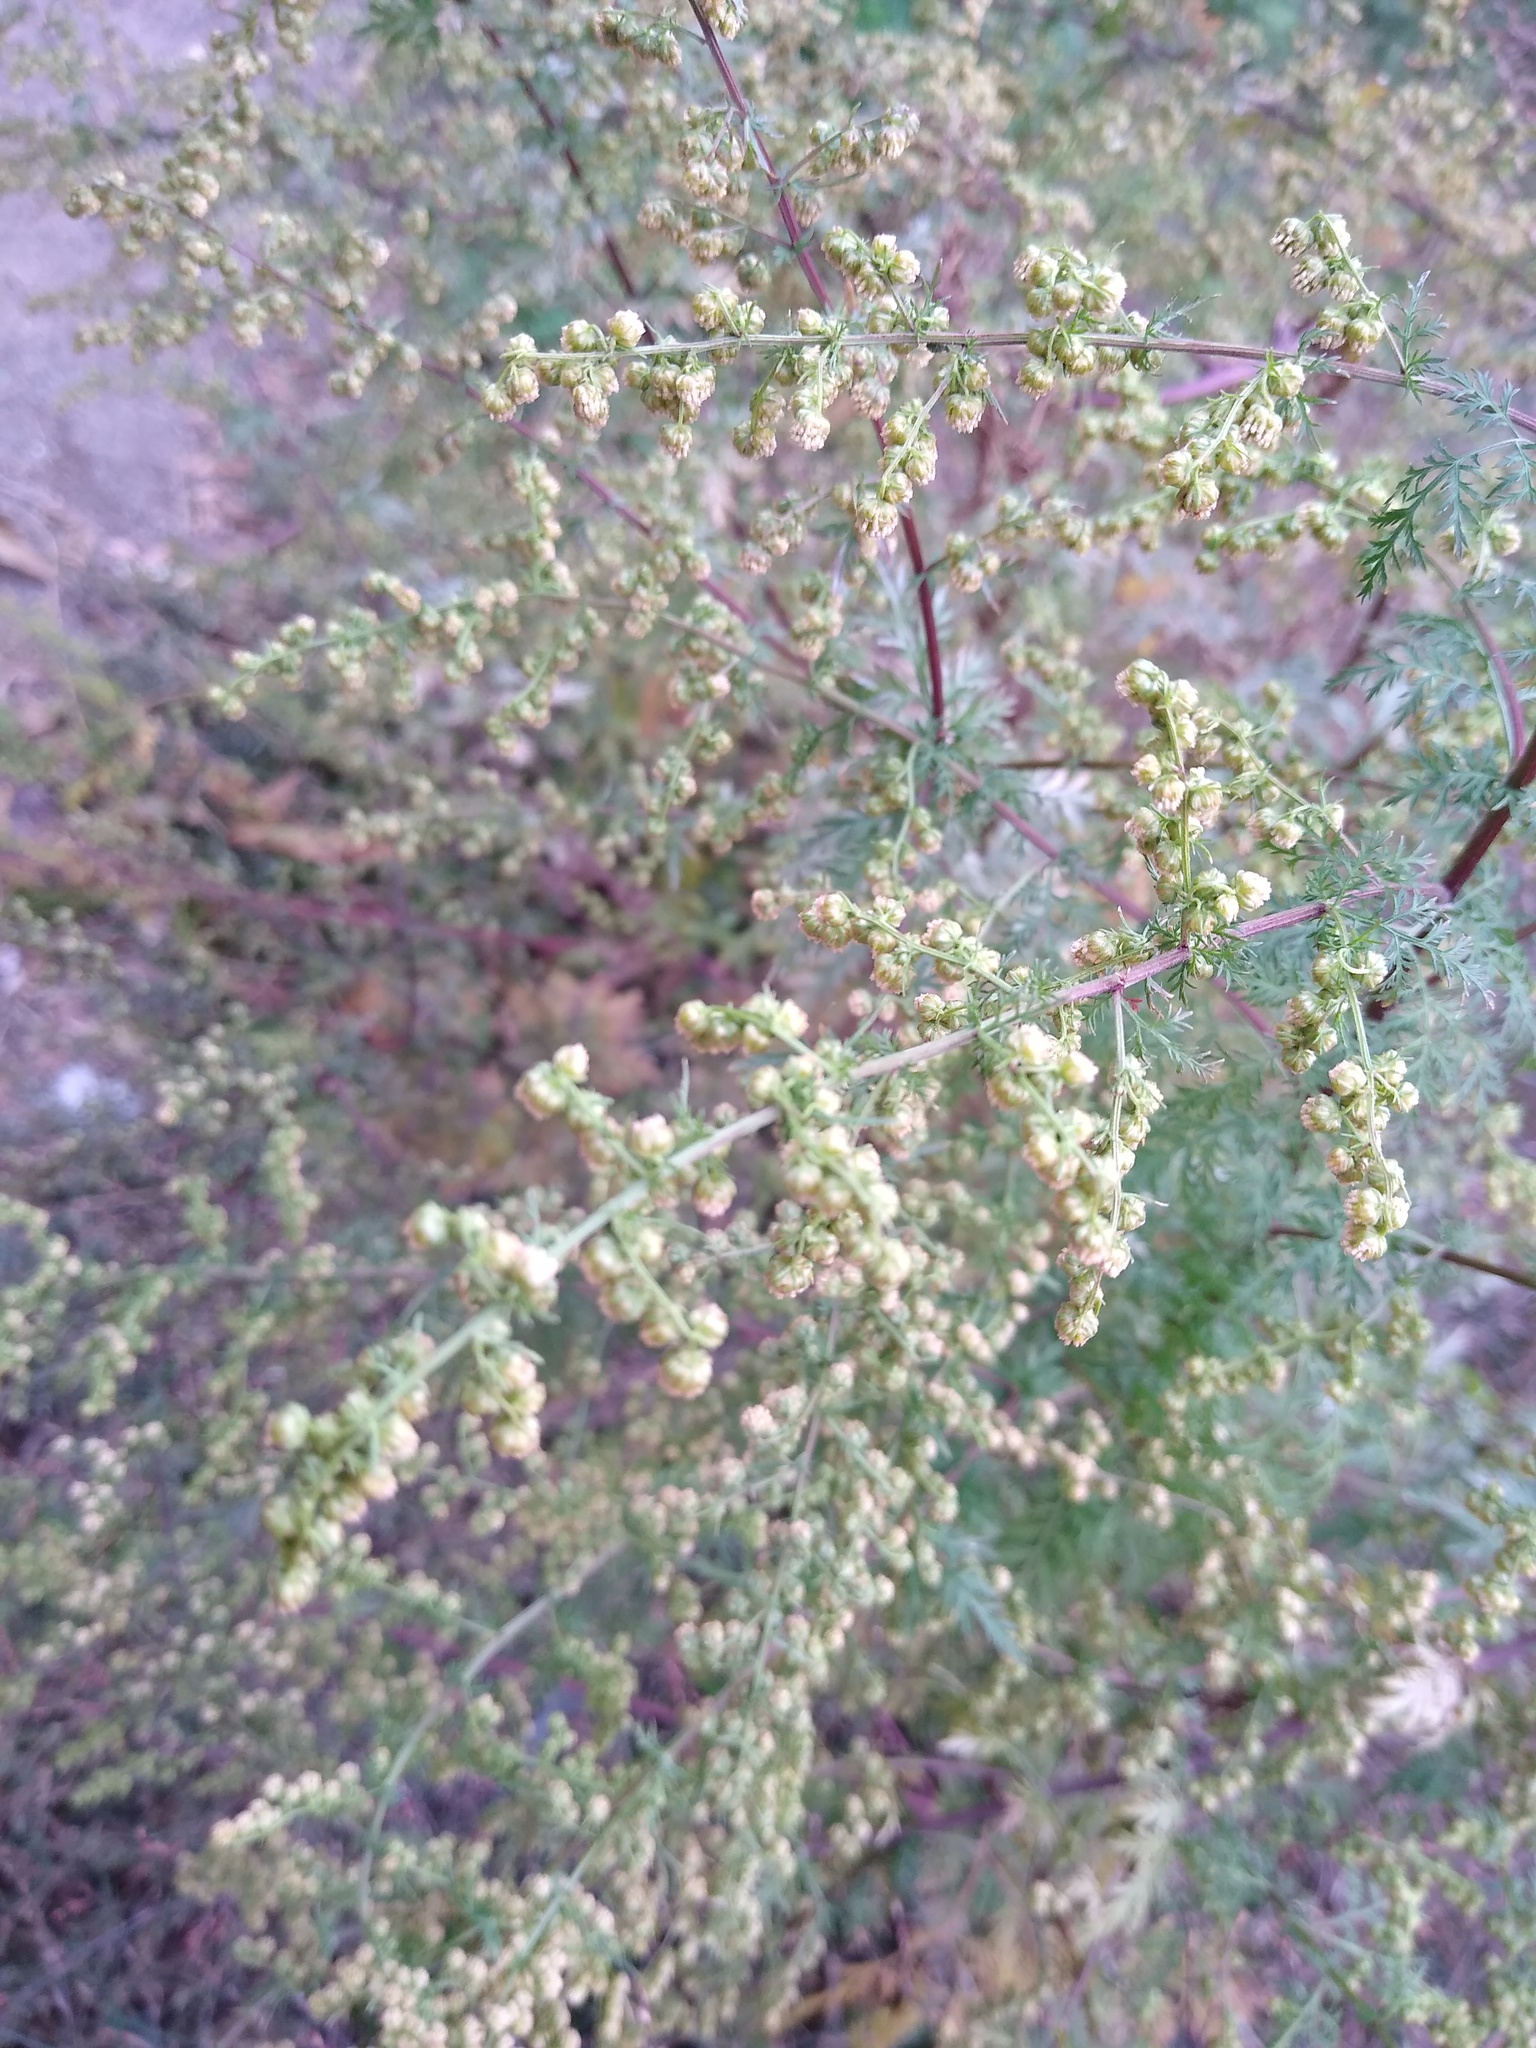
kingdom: Plantae
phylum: Tracheophyta
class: Magnoliopsida
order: Asterales
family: Asteraceae
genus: Artemisia
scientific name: Artemisia annua
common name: Sweet sagewort
